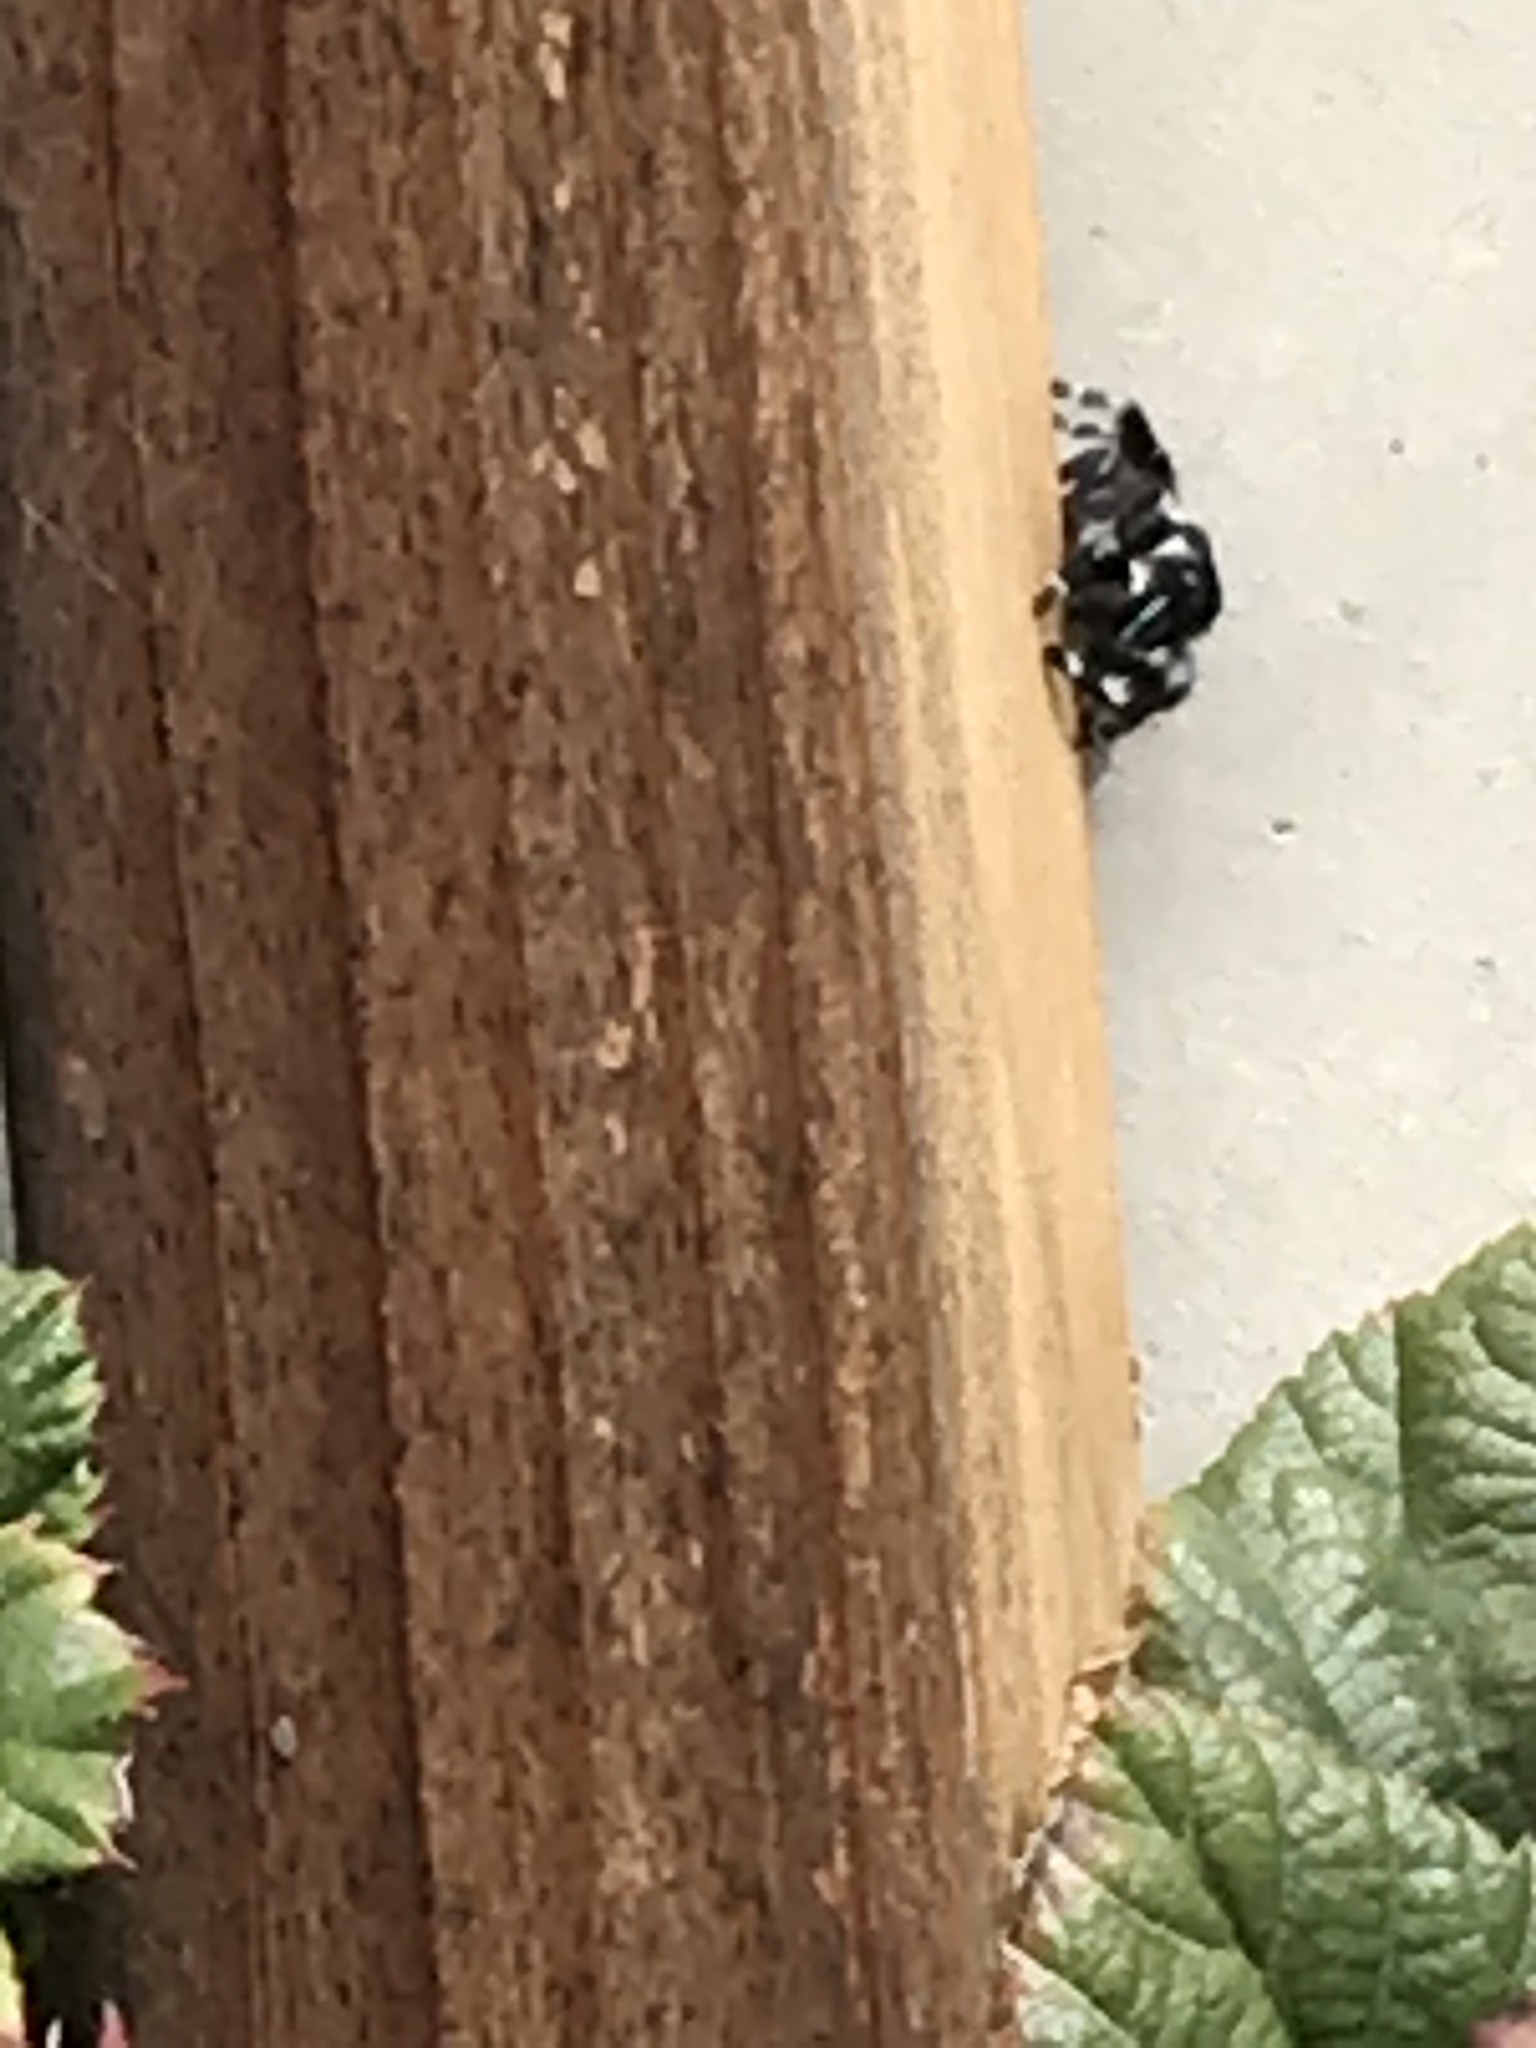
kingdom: Animalia
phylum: Arthropoda
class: Arachnida
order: Araneae
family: Salticidae
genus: Phidippus
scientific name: Phidippus audax
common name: Bold jumper
